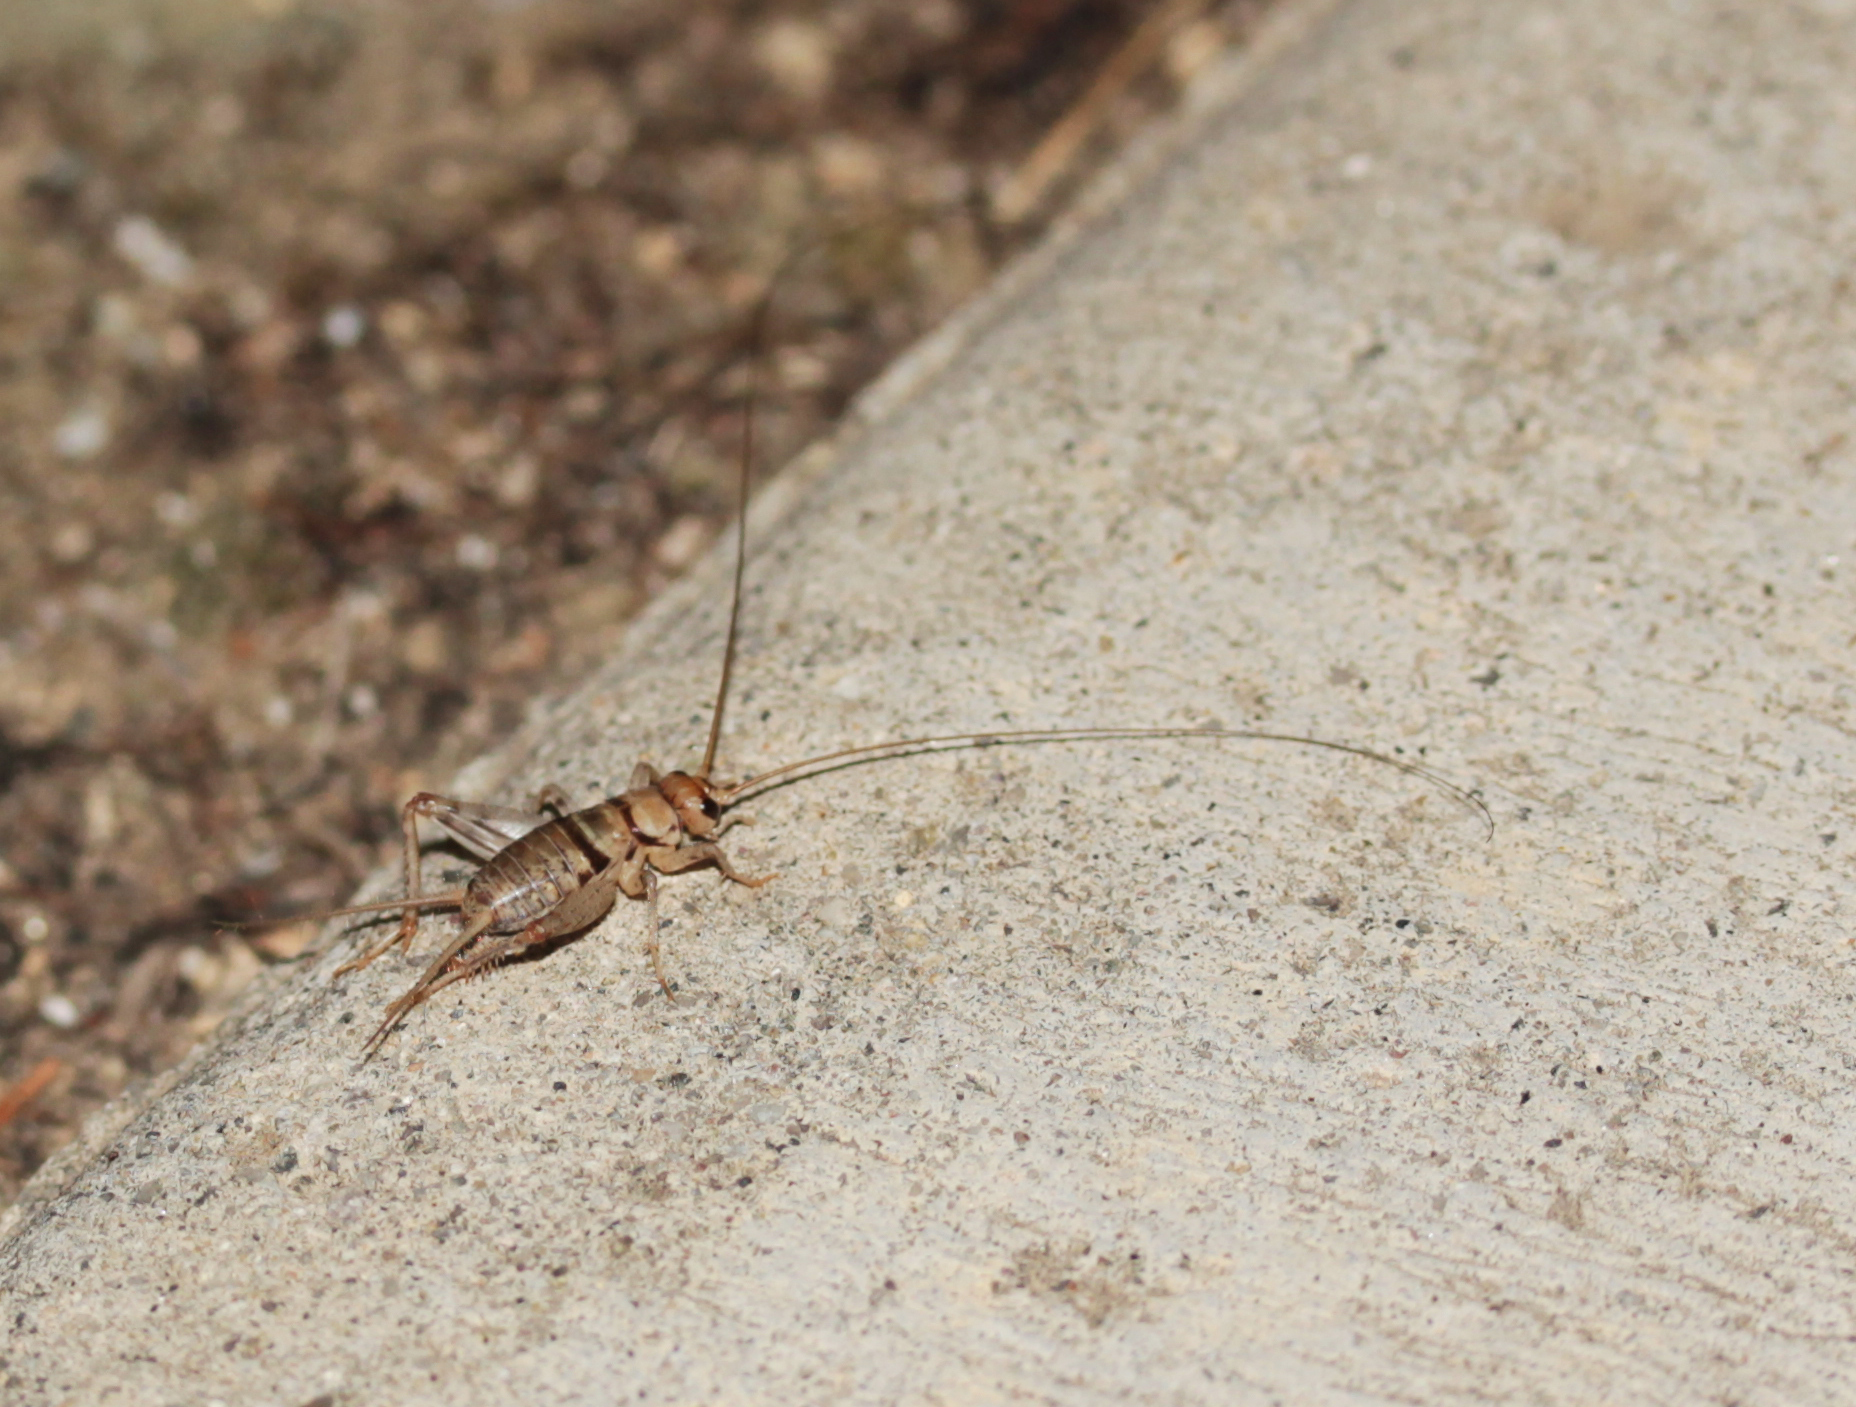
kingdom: Animalia
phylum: Arthropoda
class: Insecta
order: Orthoptera
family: Gryllidae
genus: Gryllodes
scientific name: Gryllodes sigillatus
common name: Tropical house cricket
